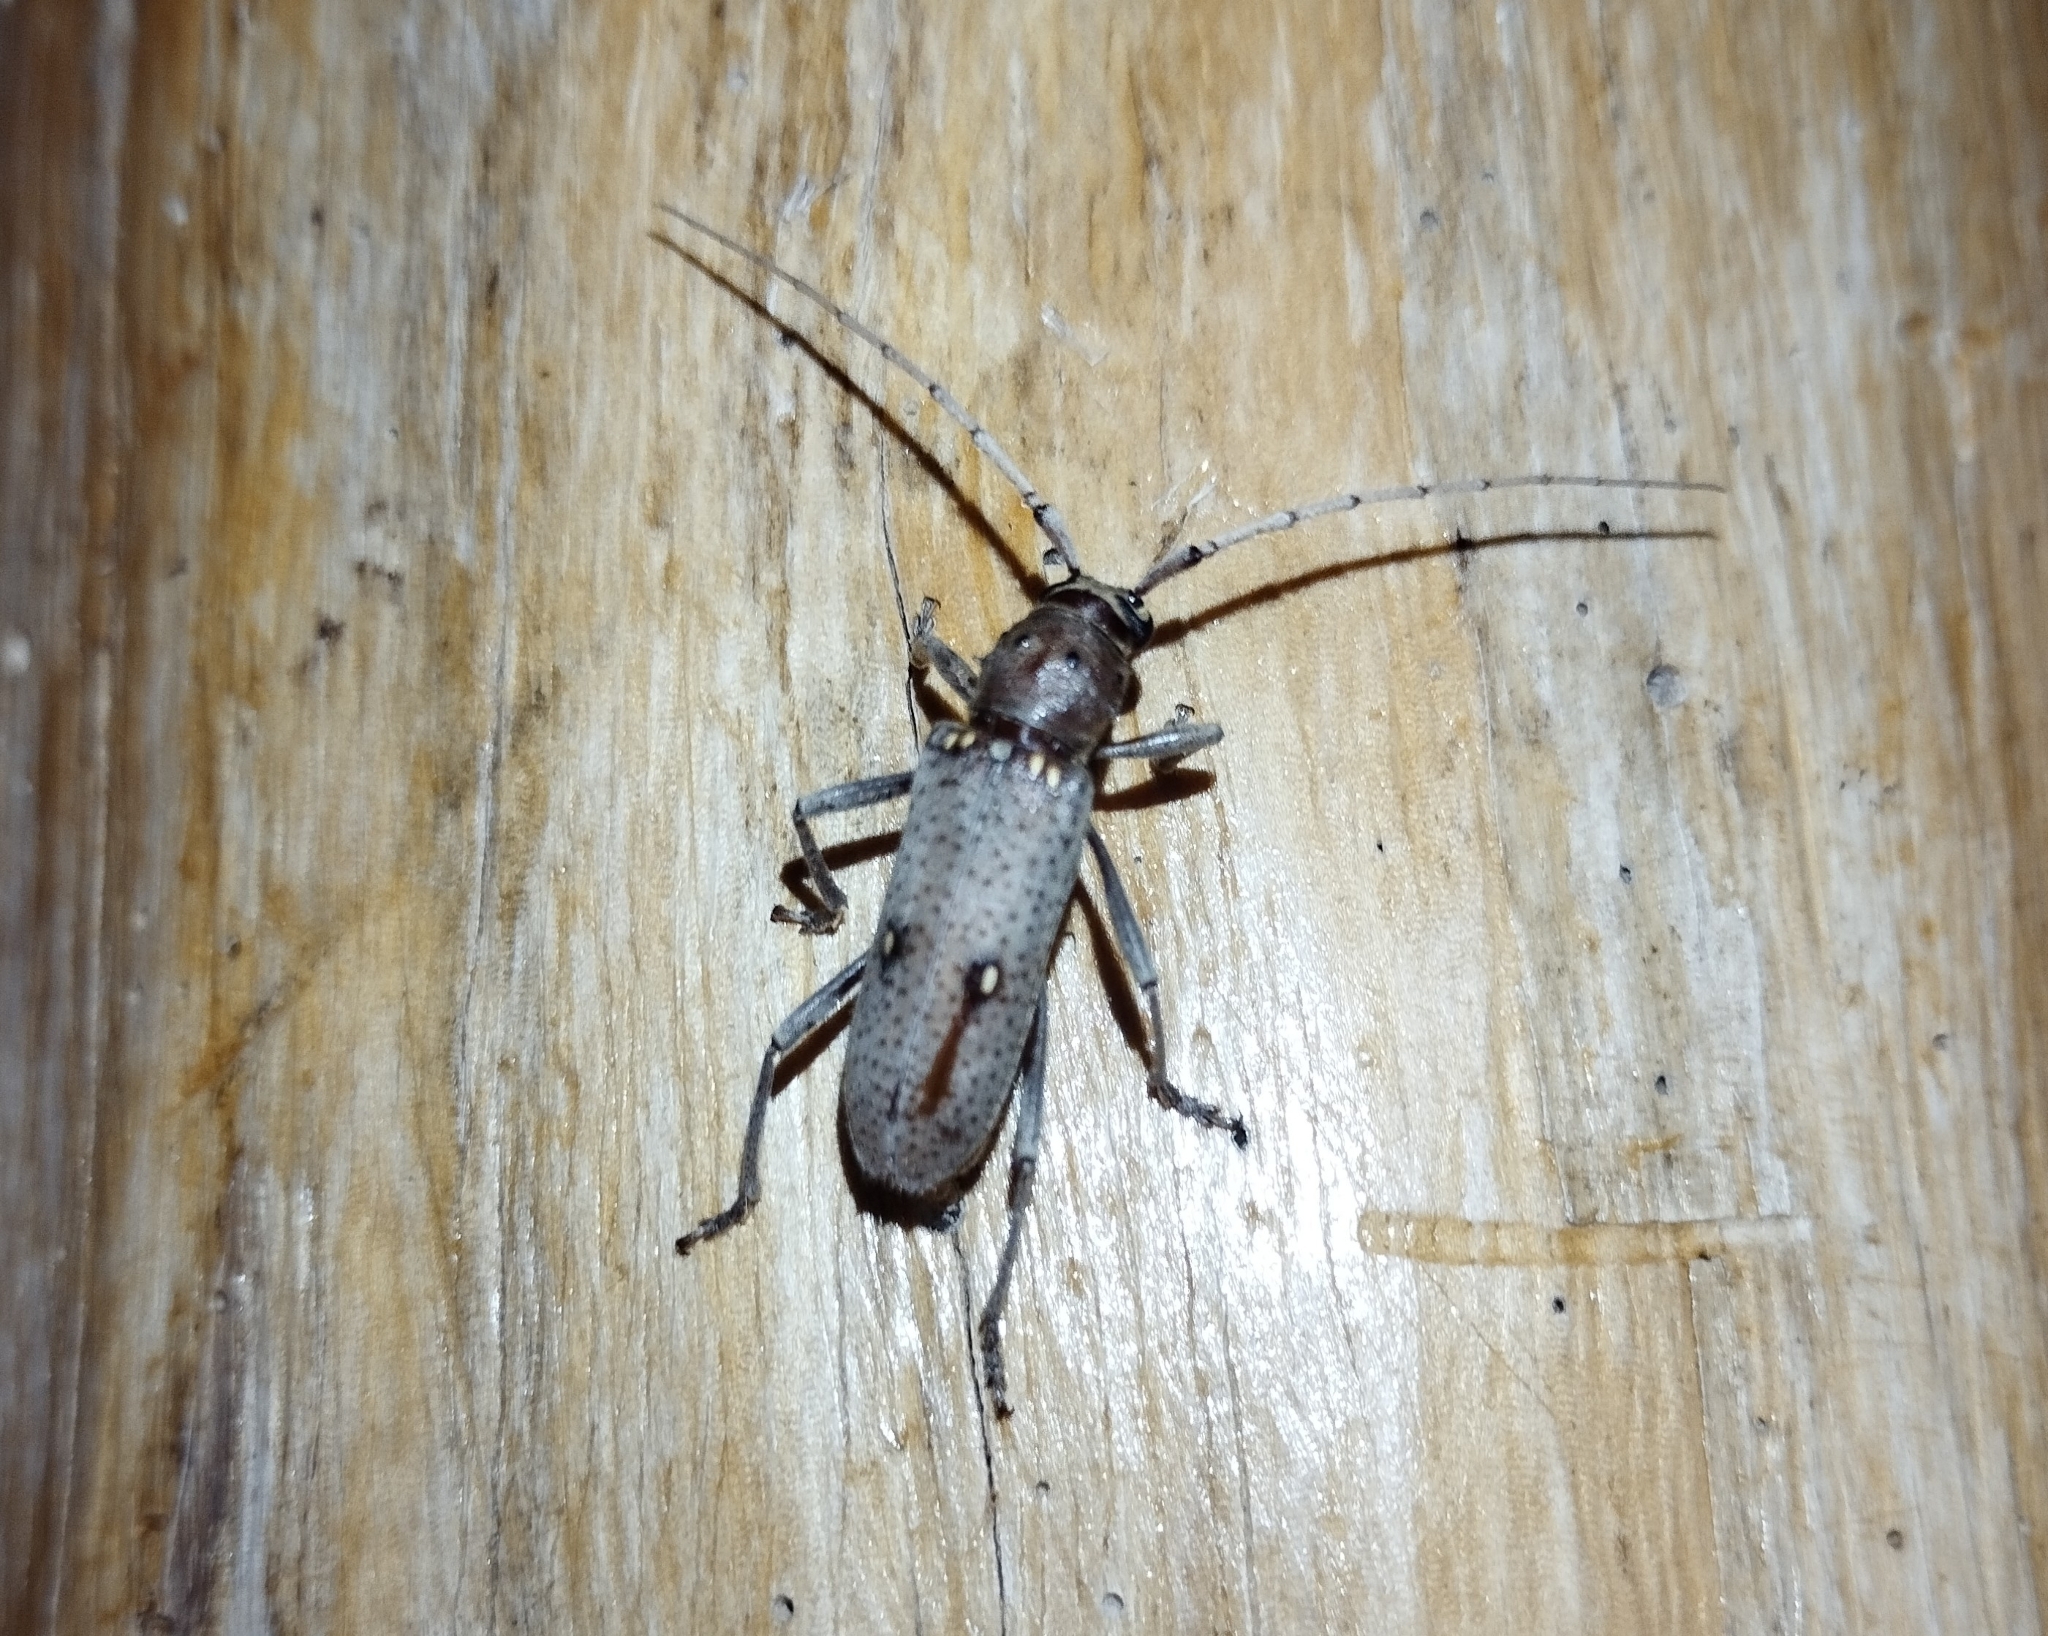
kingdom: Animalia
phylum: Arthropoda
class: Insecta
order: Coleoptera
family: Cerambycidae
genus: Eburia
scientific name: Eburia porulosa
